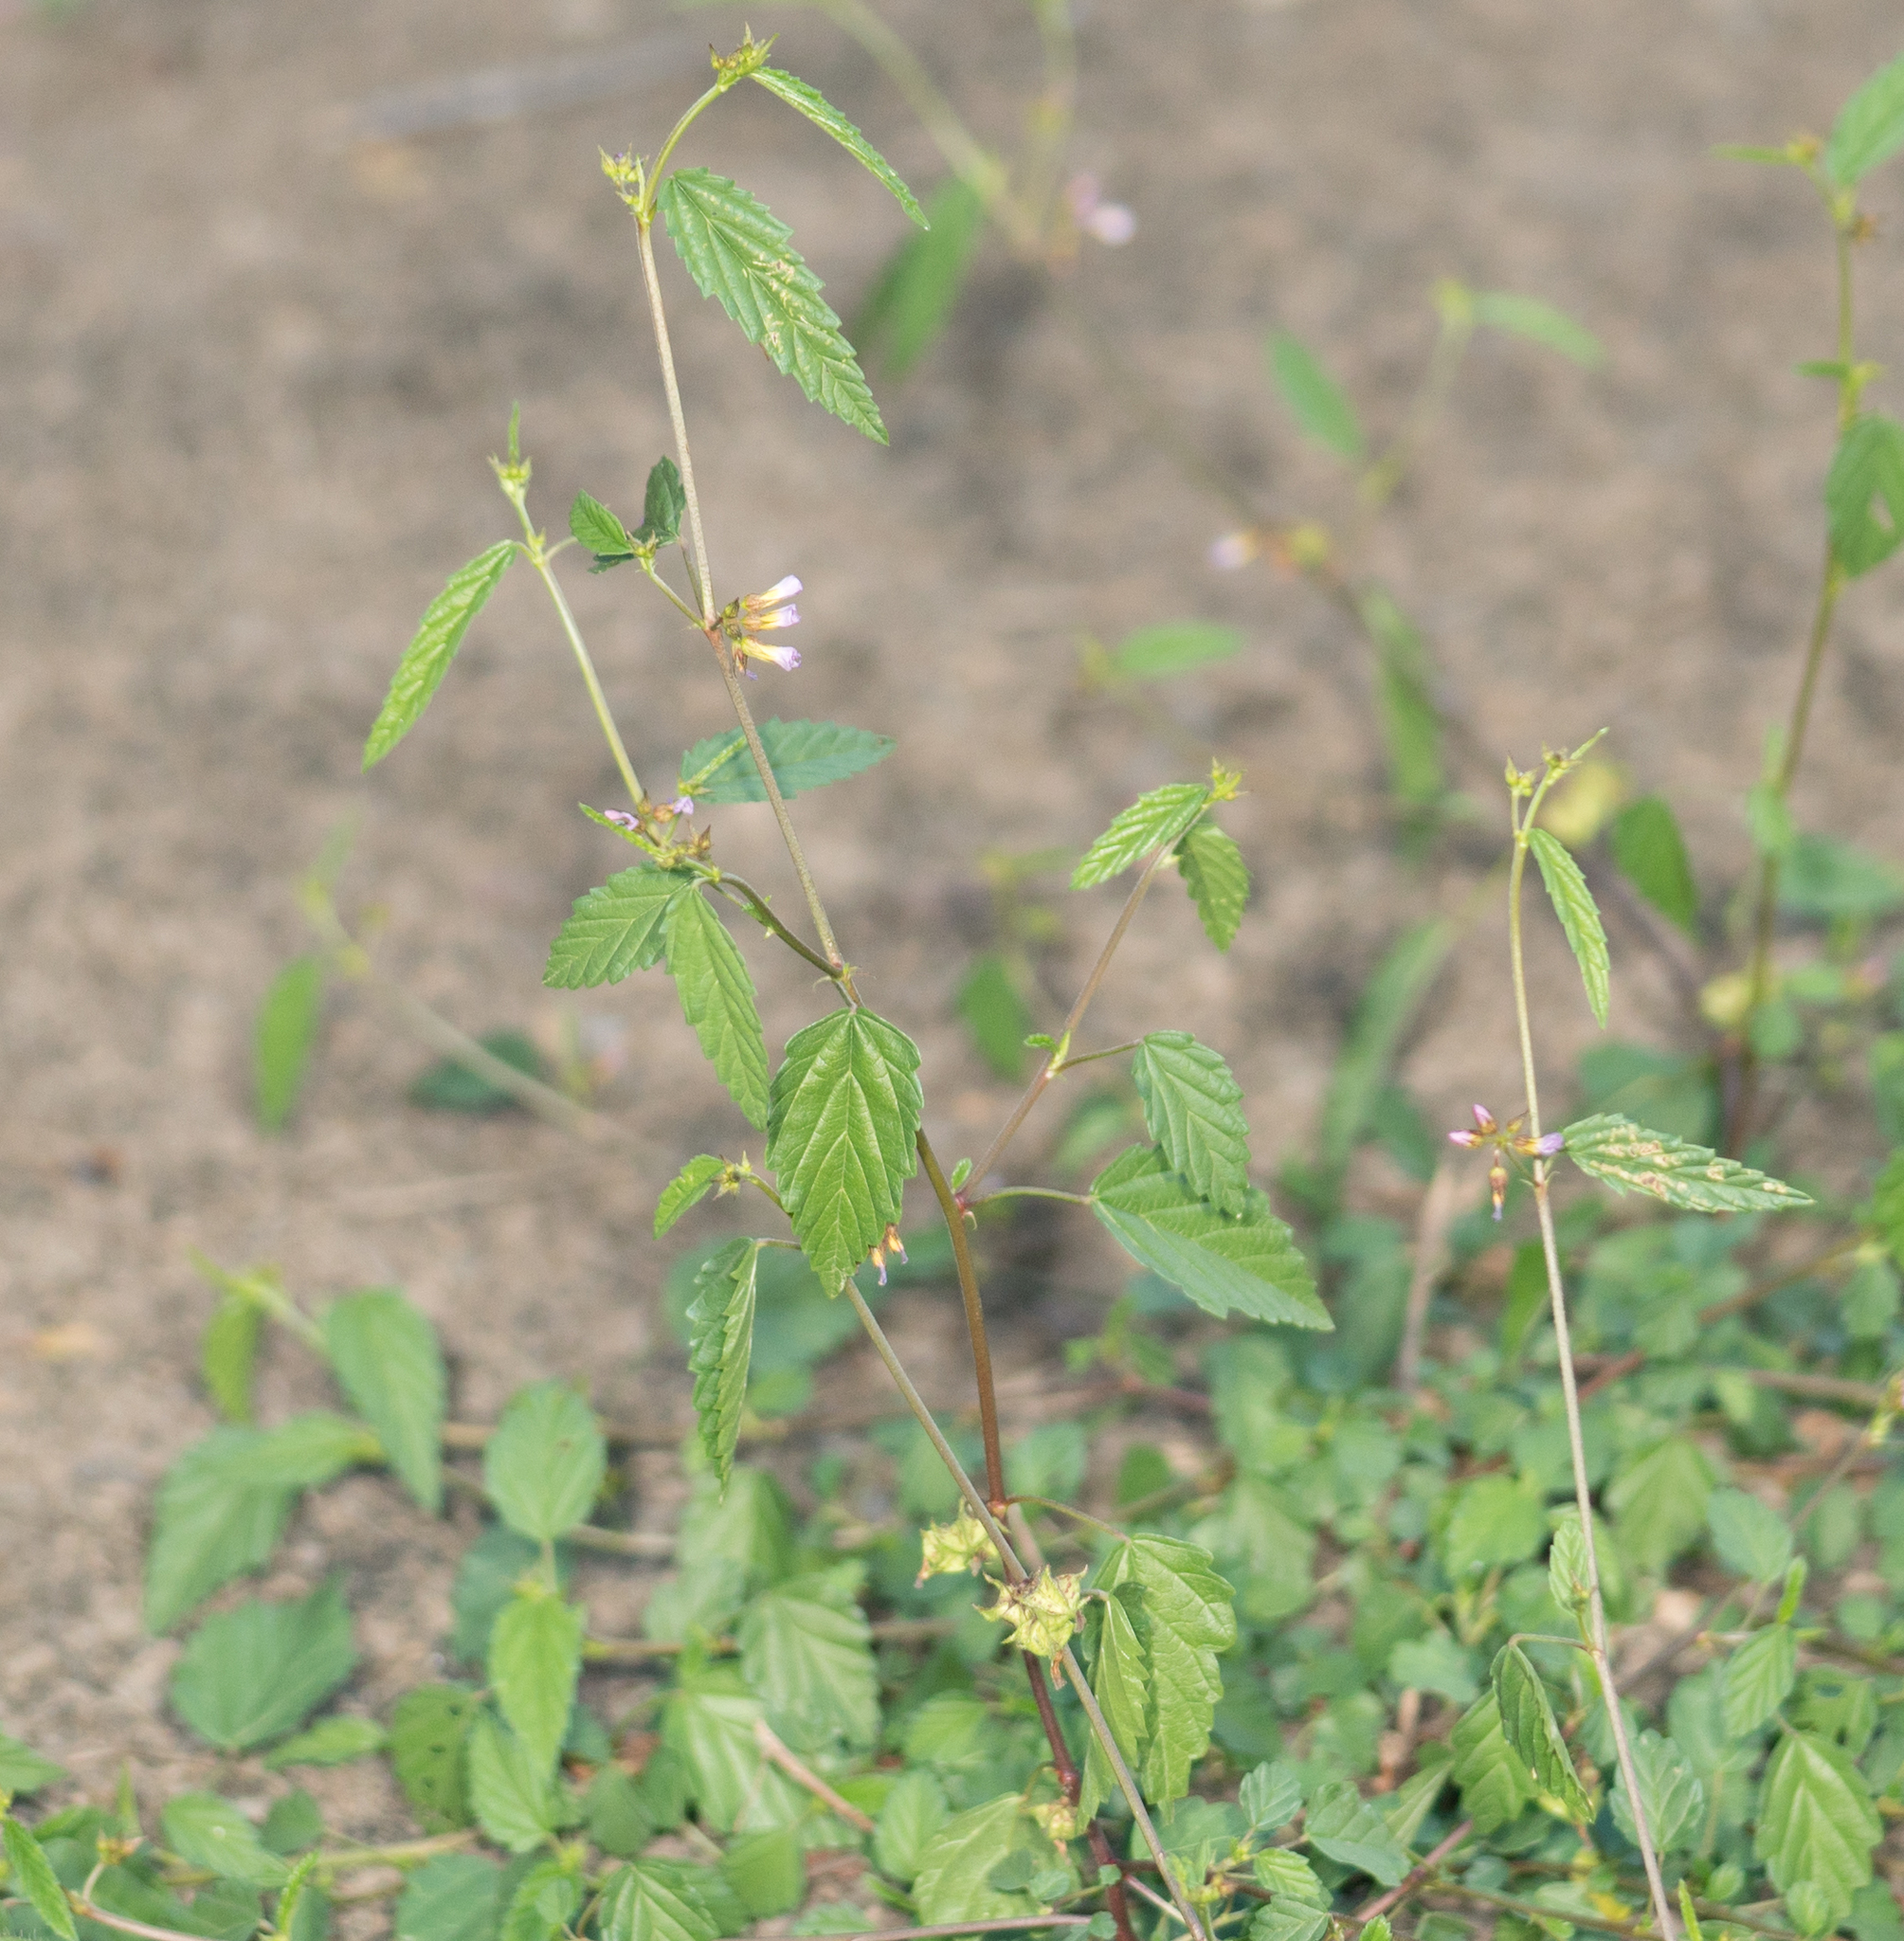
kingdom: Plantae
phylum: Tracheophyta
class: Magnoliopsida
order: Malvales
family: Malvaceae
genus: Melochia
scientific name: Melochia pyramidata
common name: Pyramidflower
